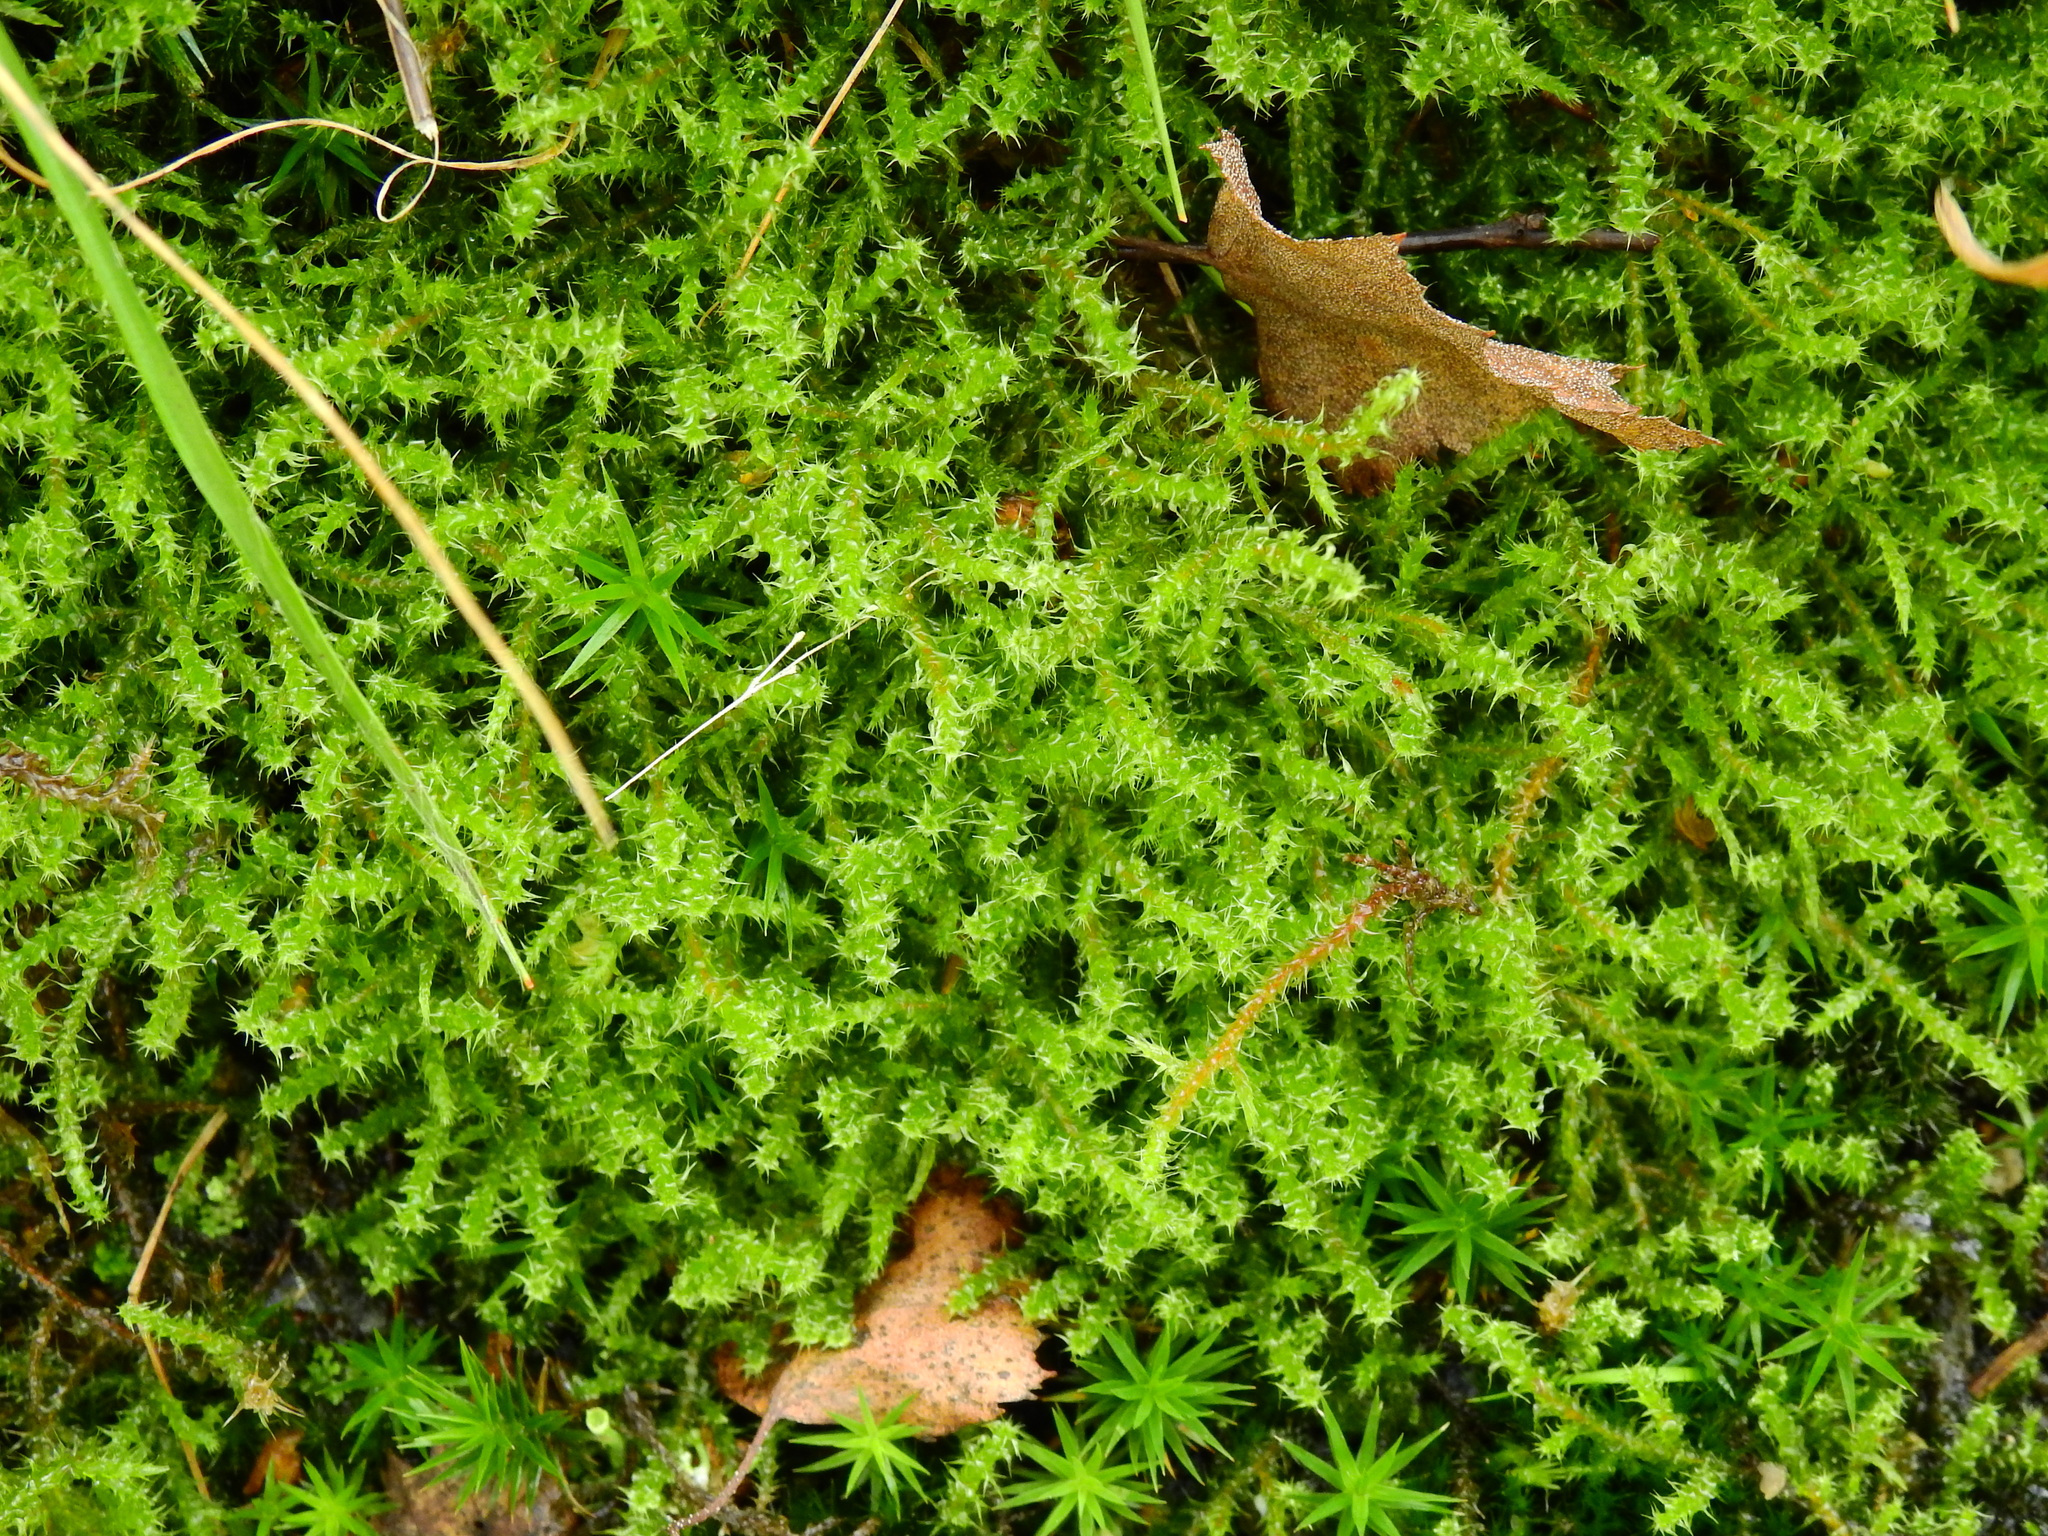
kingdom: Plantae
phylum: Bryophyta
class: Bryopsida
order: Hypnales
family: Hylocomiaceae
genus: Rhytidiadelphus
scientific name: Rhytidiadelphus squarrosus
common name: Springy turf-moss
